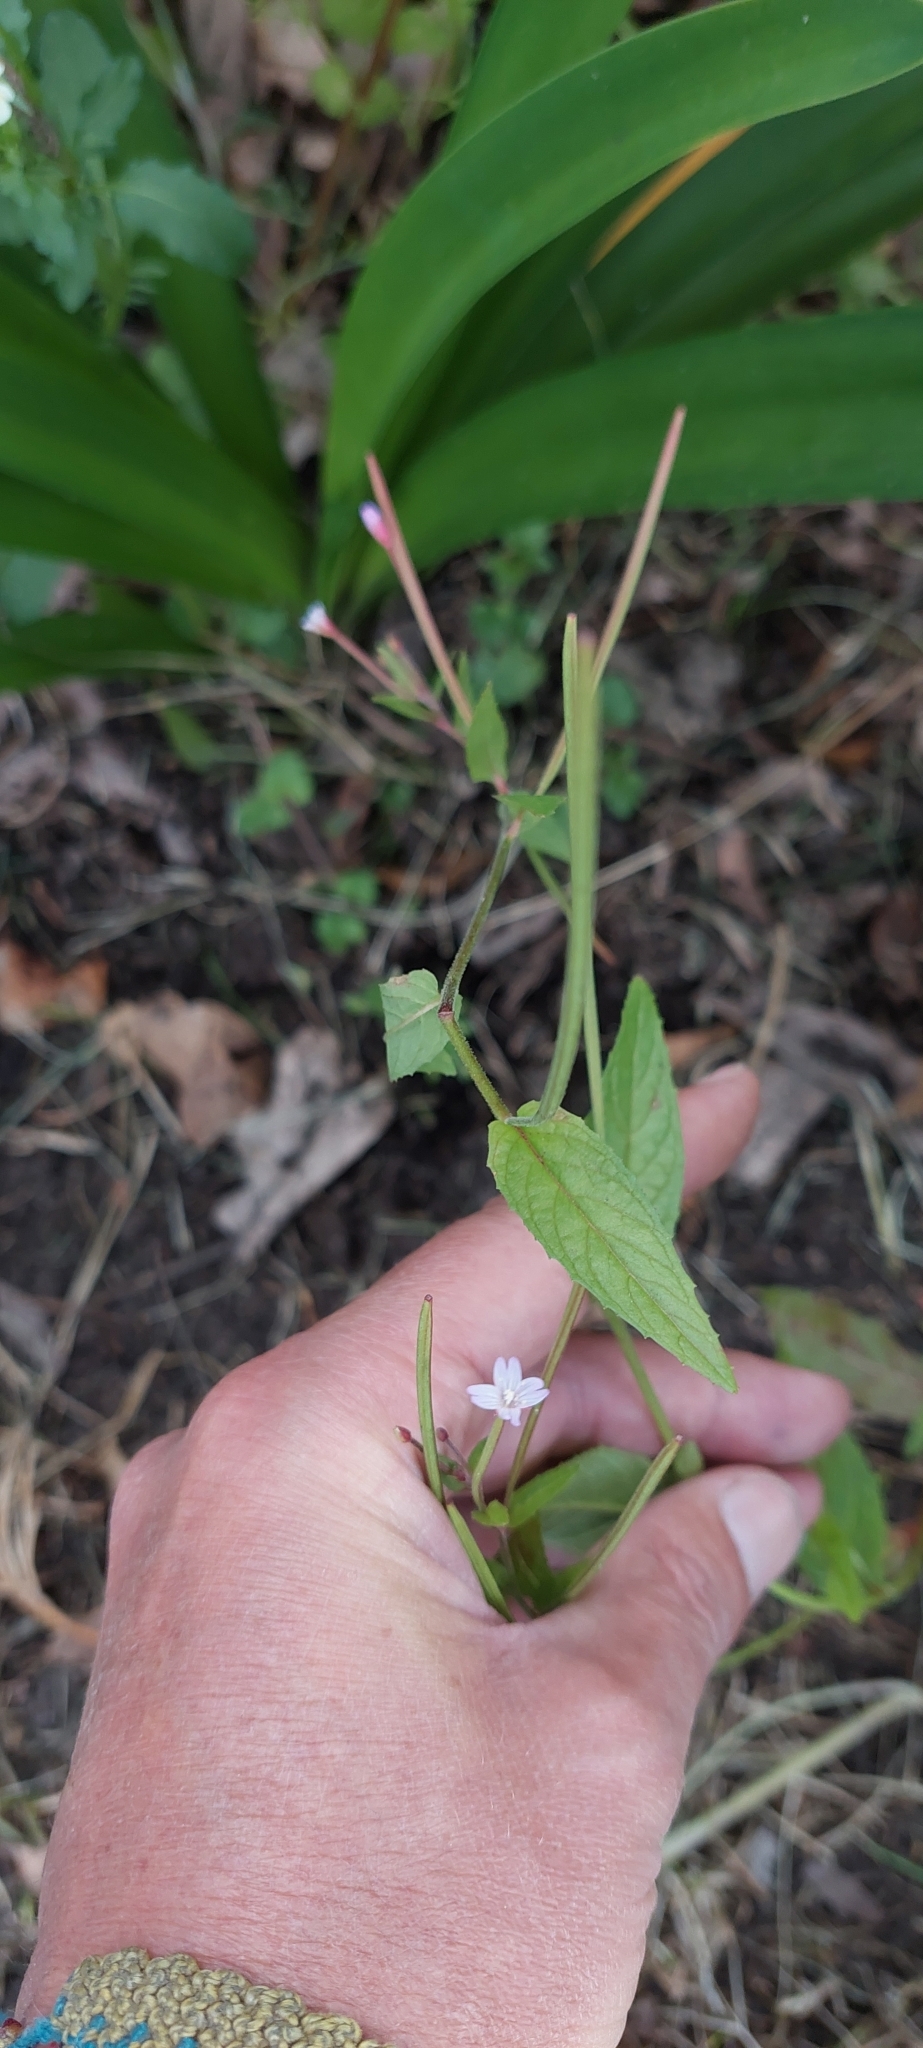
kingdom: Plantae
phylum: Tracheophyta
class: Magnoliopsida
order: Myrtales
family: Onagraceae
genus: Epilobium
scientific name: Epilobium denticulatum
